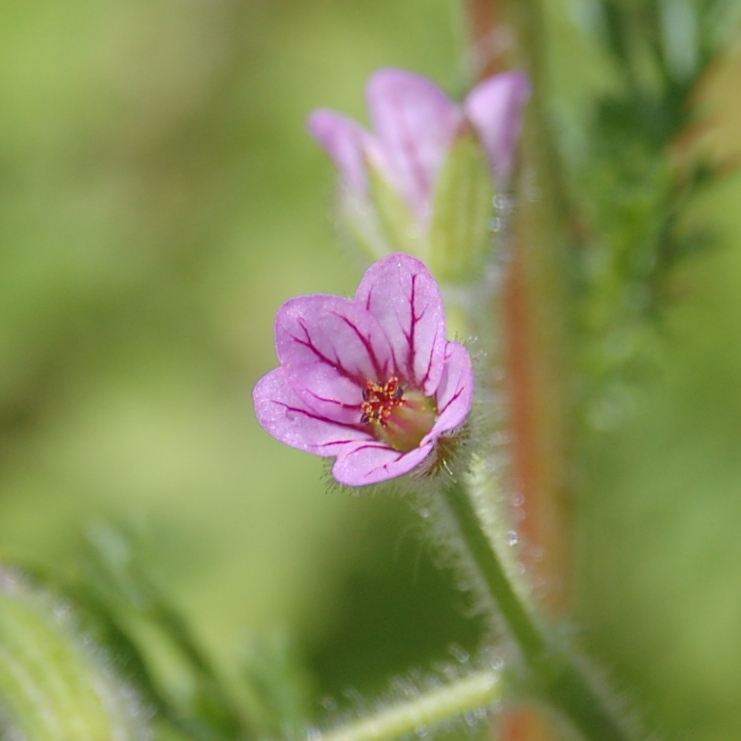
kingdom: Plantae
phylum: Tracheophyta
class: Magnoliopsida
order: Geraniales
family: Geraniaceae
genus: Erodium
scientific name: Erodium geoides
